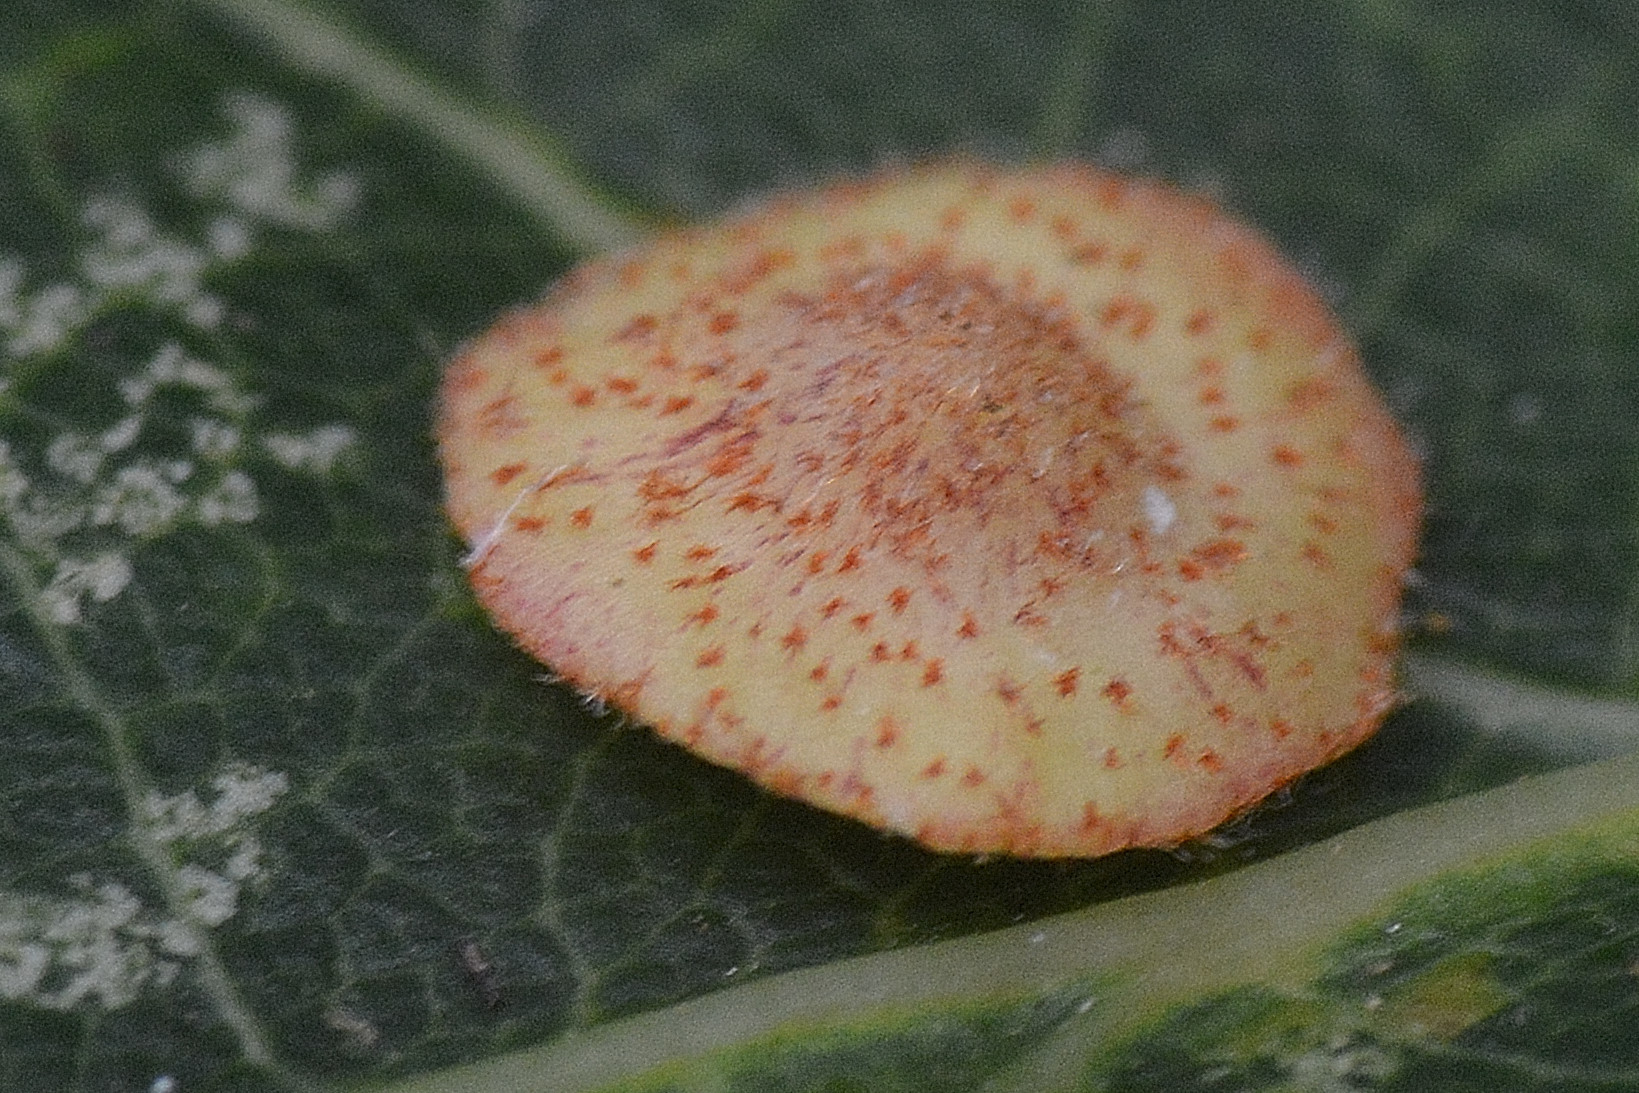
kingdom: Animalia
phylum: Arthropoda
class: Insecta
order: Hymenoptera
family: Cynipidae
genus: Neuroterus
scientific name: Neuroterus quercusbaccarum
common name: Common spangle gall
